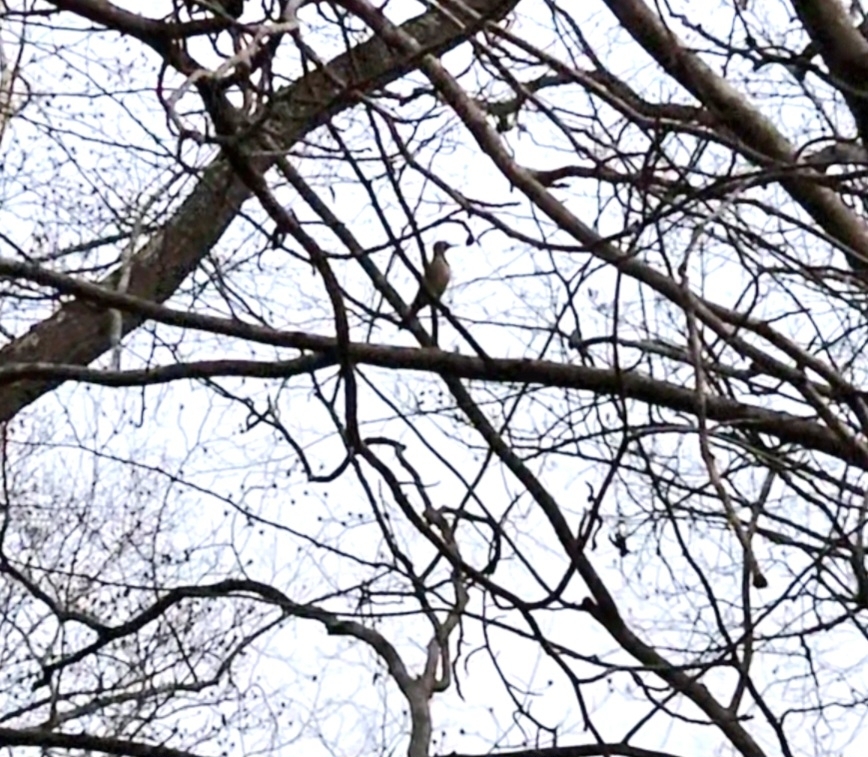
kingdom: Animalia
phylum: Chordata
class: Aves
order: Piciformes
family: Picidae
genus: Colaptes
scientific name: Colaptes auratus
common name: Northern flicker
